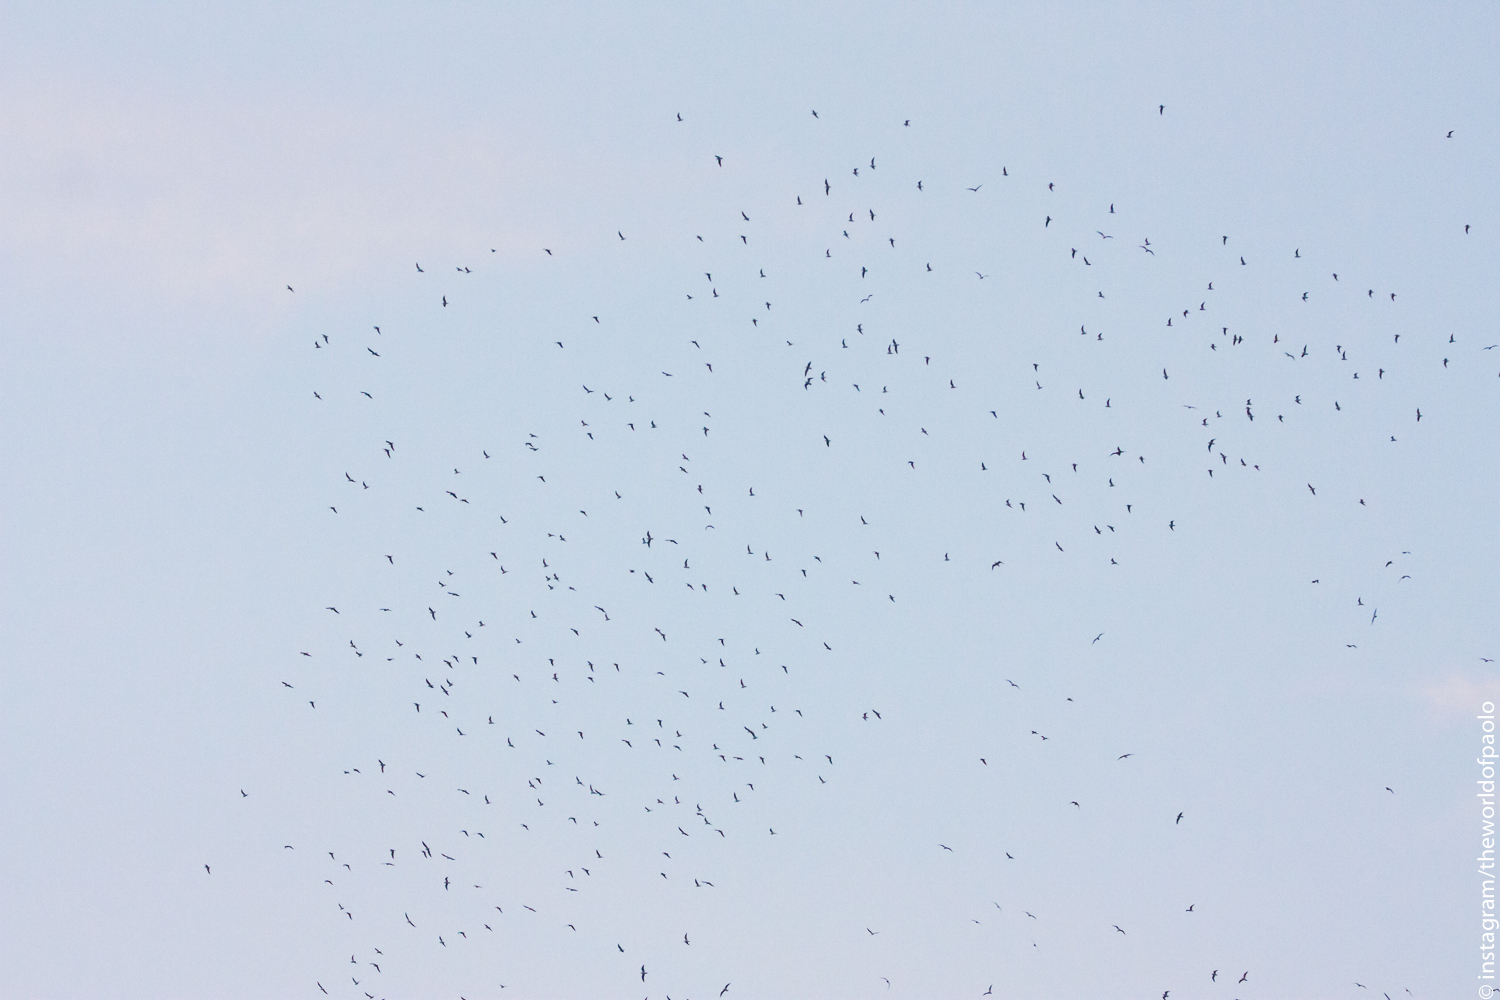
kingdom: Animalia
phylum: Chordata
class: Aves
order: Charadriiformes
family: Laridae
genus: Chroicocephalus
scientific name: Chroicocephalus ridibundus
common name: Black-headed gull
